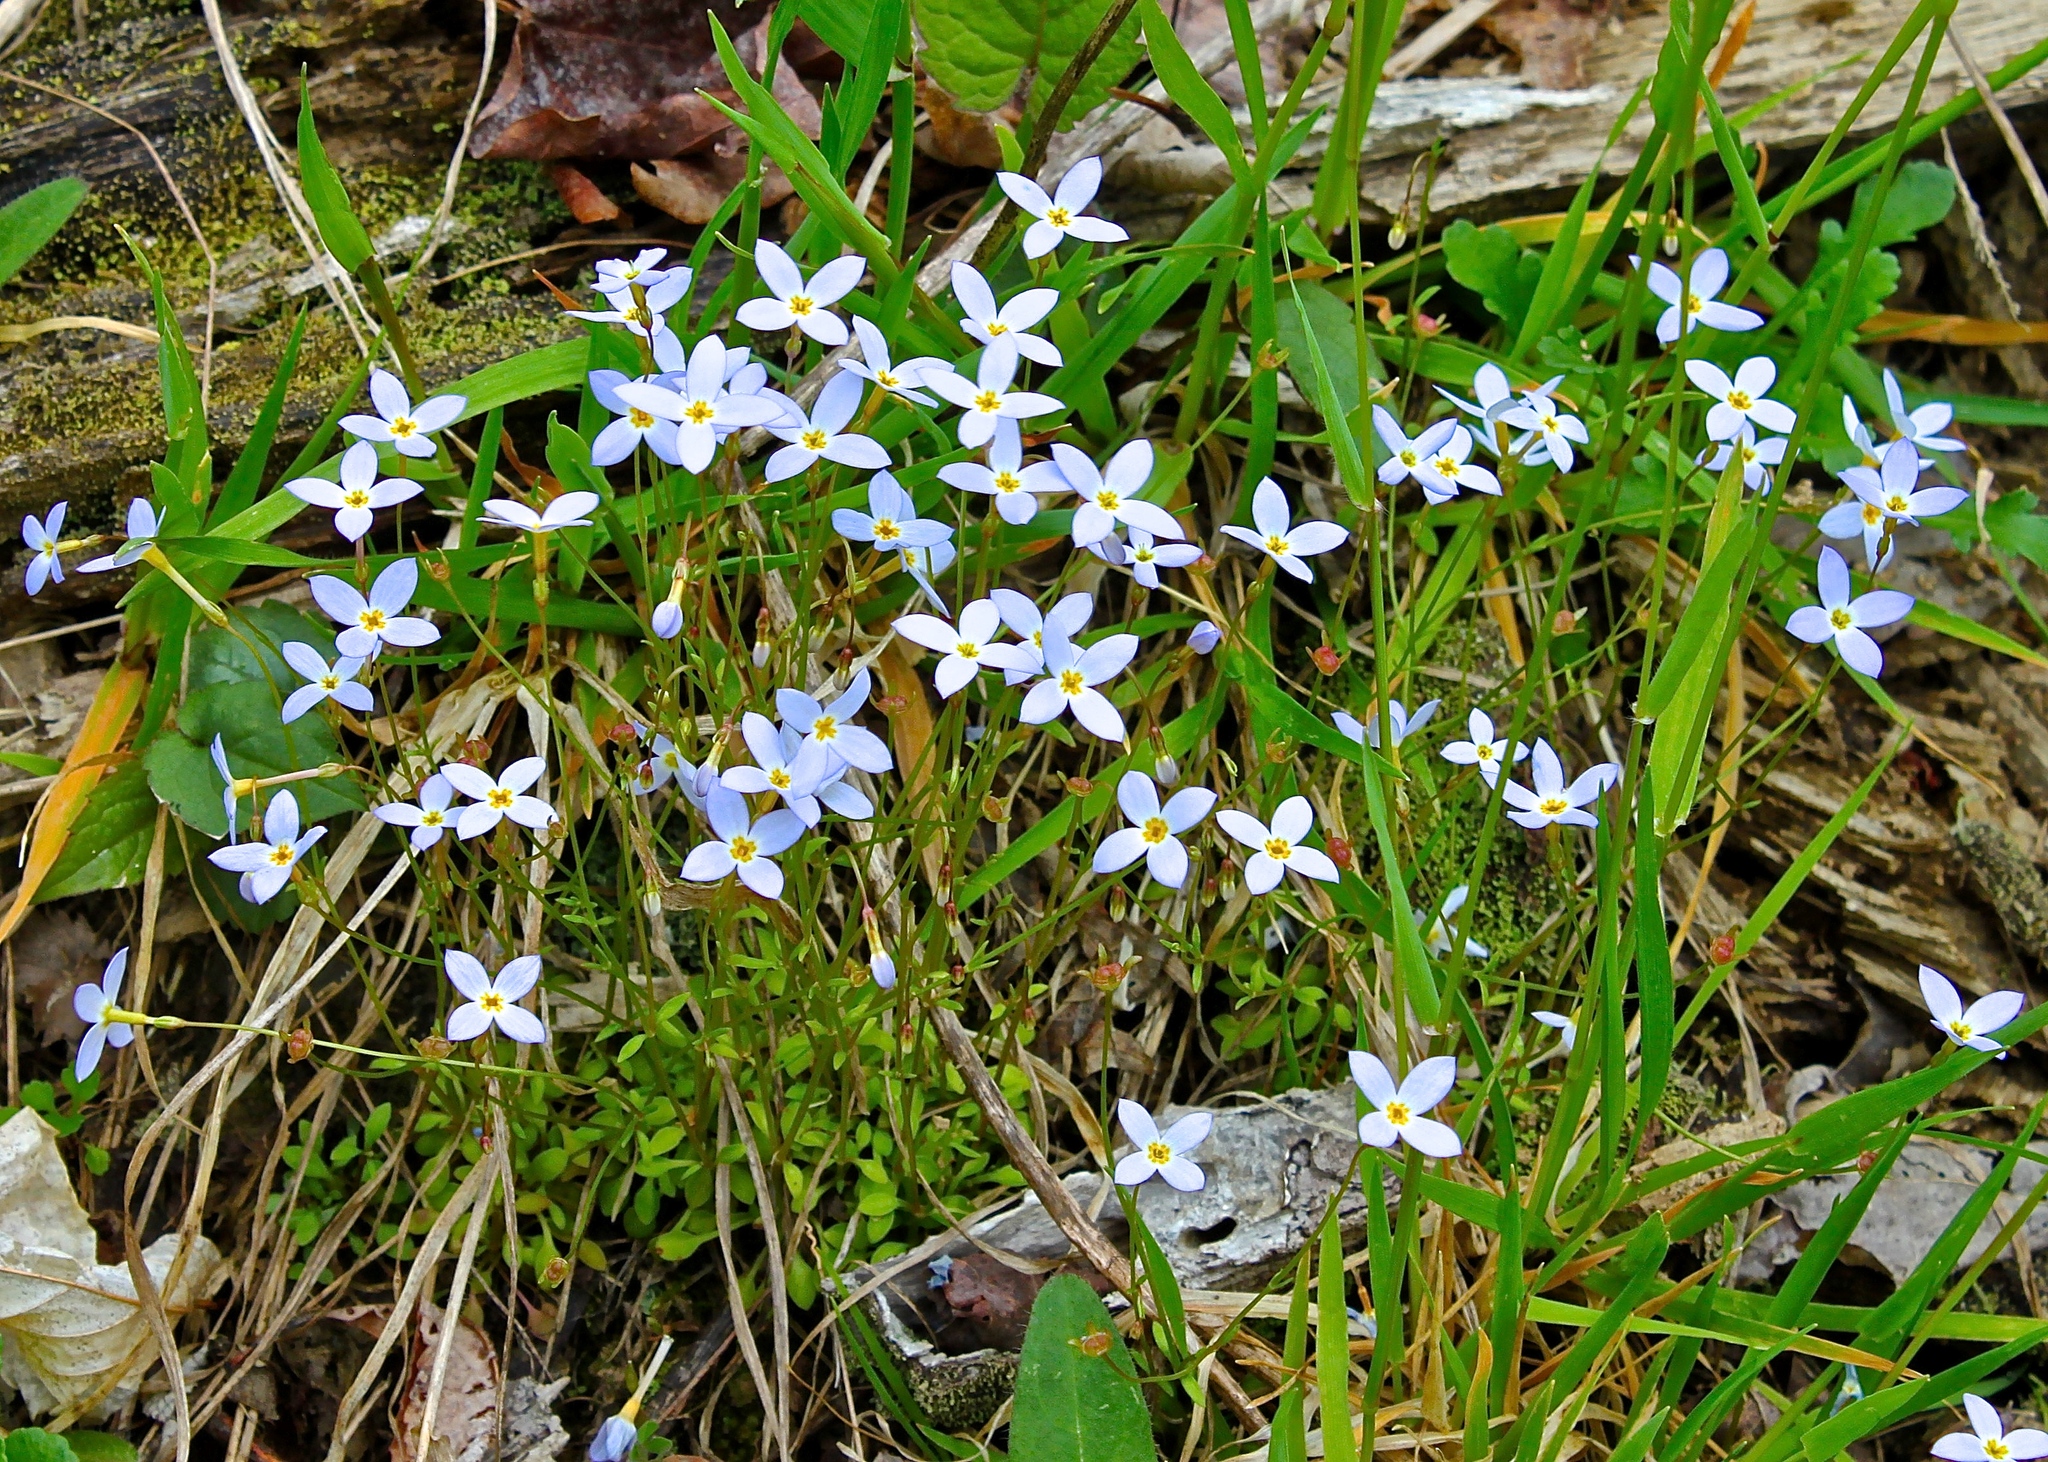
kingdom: Plantae
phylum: Tracheophyta
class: Magnoliopsida
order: Gentianales
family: Rubiaceae
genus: Houstonia
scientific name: Houstonia caerulea
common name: Bluets
